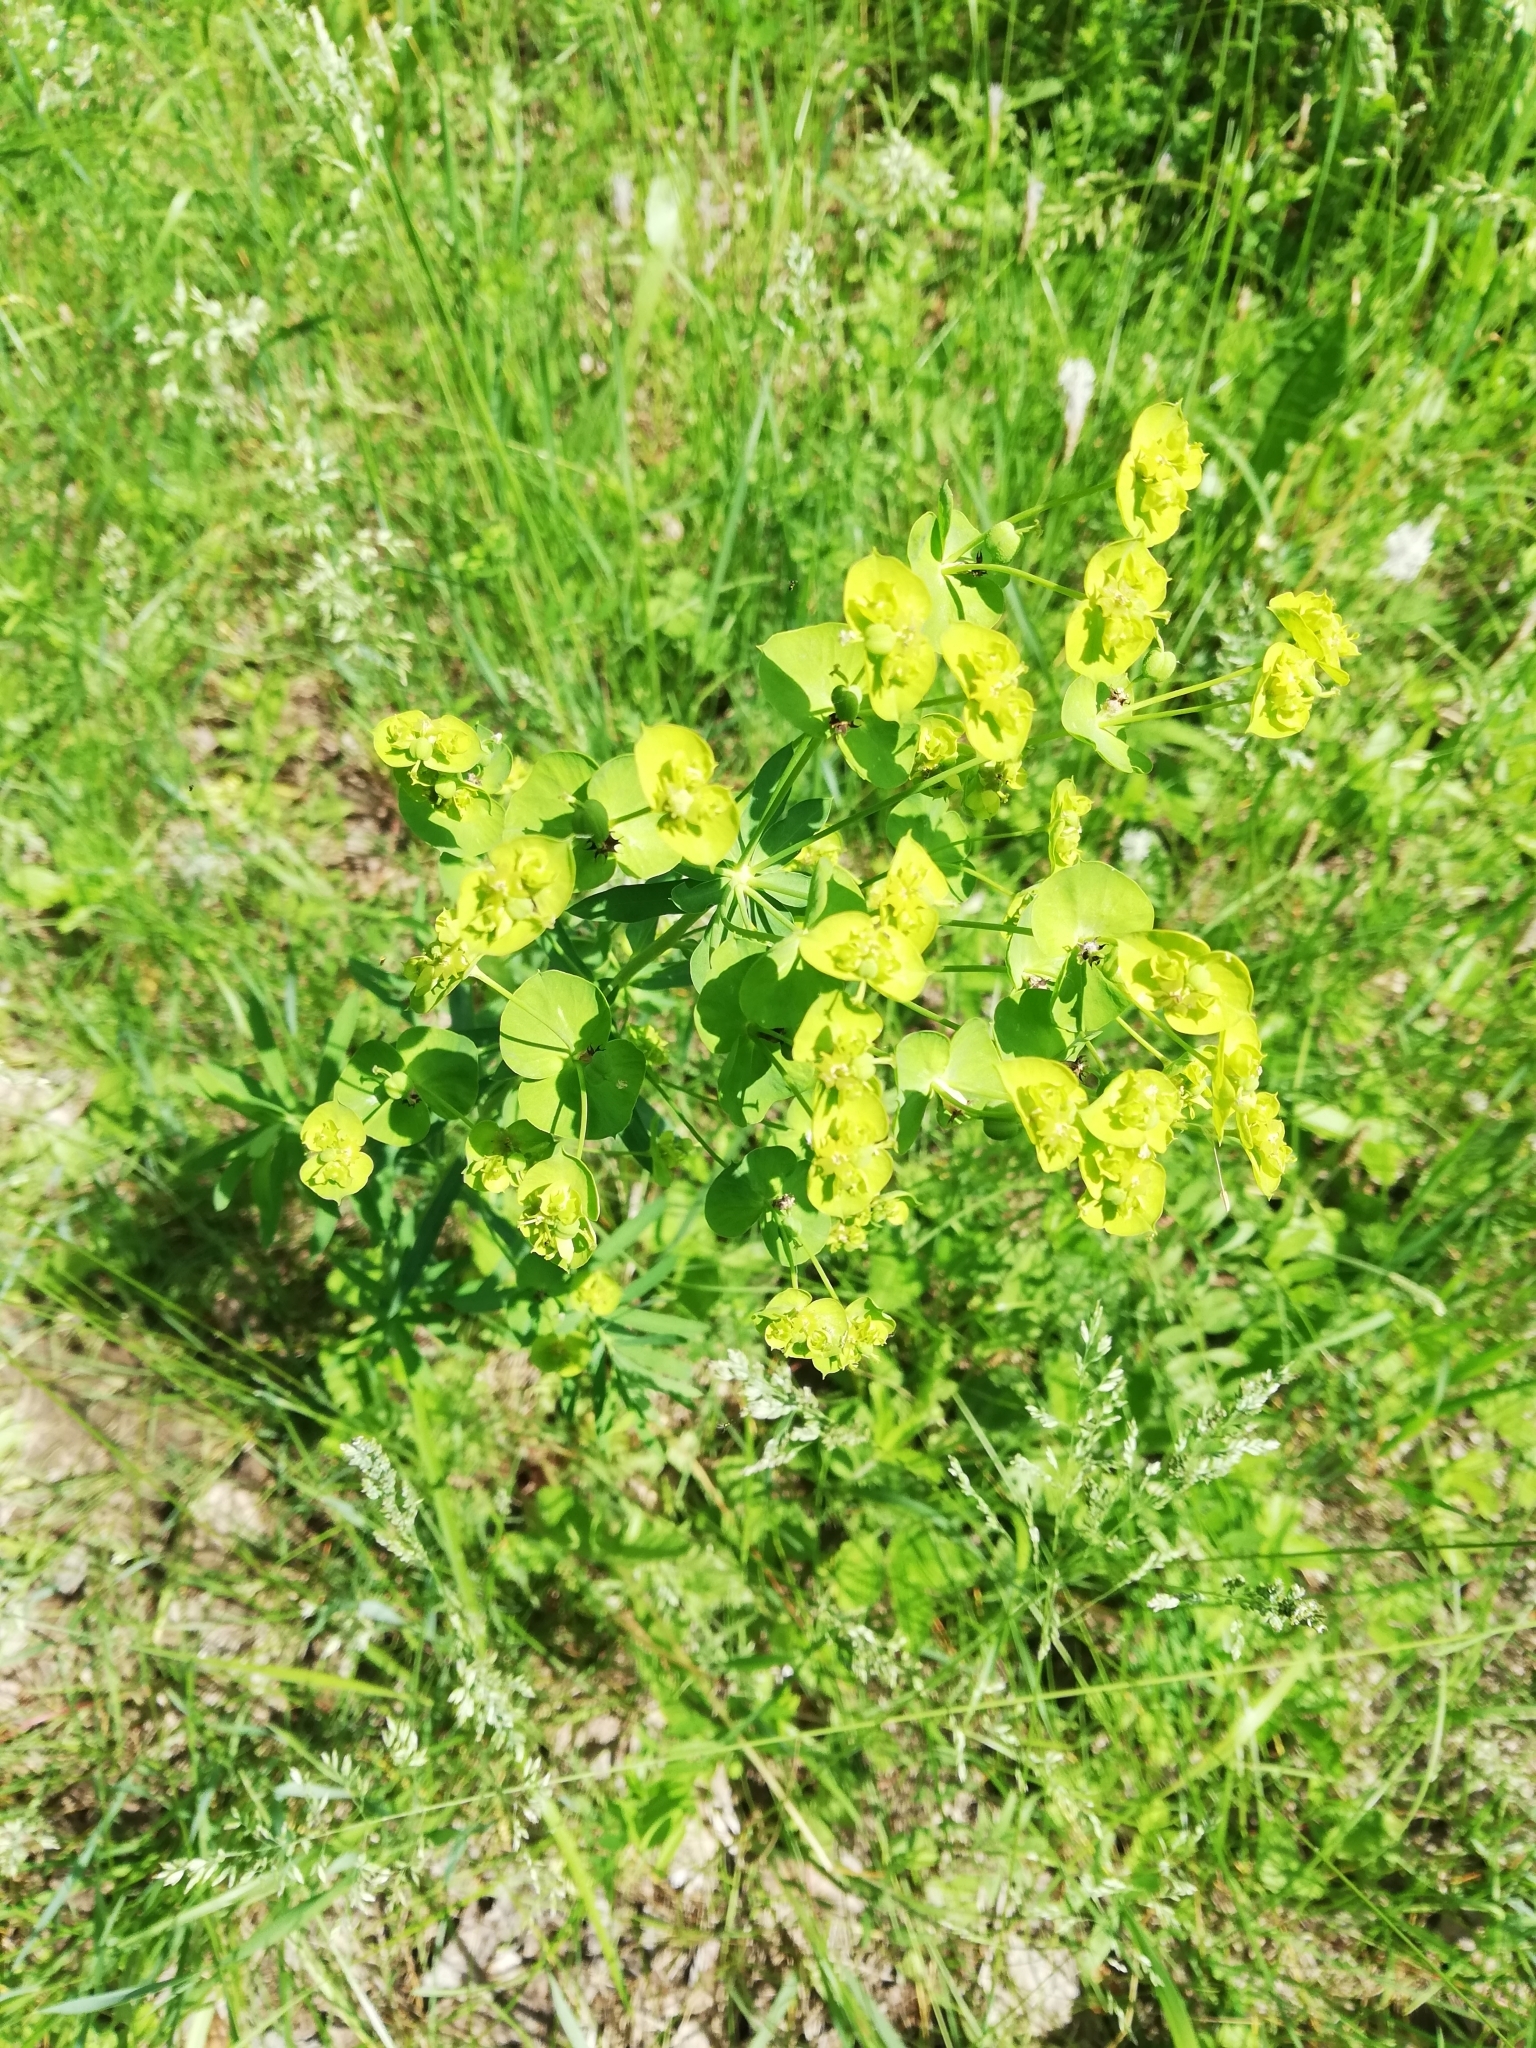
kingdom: Plantae
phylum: Tracheophyta
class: Magnoliopsida
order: Malpighiales
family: Euphorbiaceae
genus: Euphorbia
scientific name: Euphorbia virgata
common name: Leafy spurge
